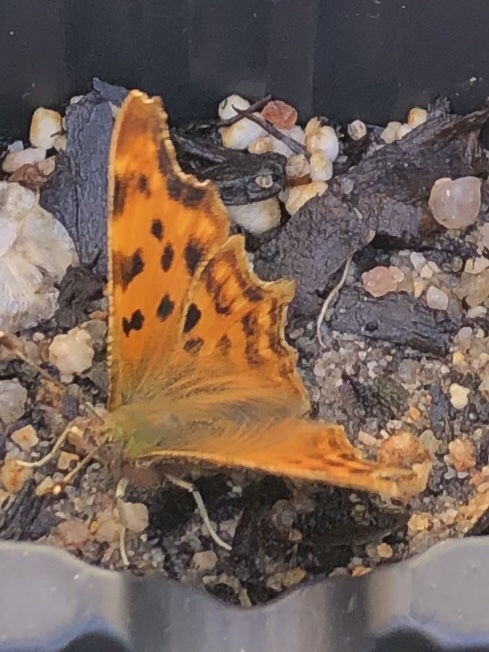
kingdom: Animalia
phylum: Arthropoda
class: Insecta
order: Lepidoptera
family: Nymphalidae
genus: Polygonia
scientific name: Polygonia c-album
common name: Comma
